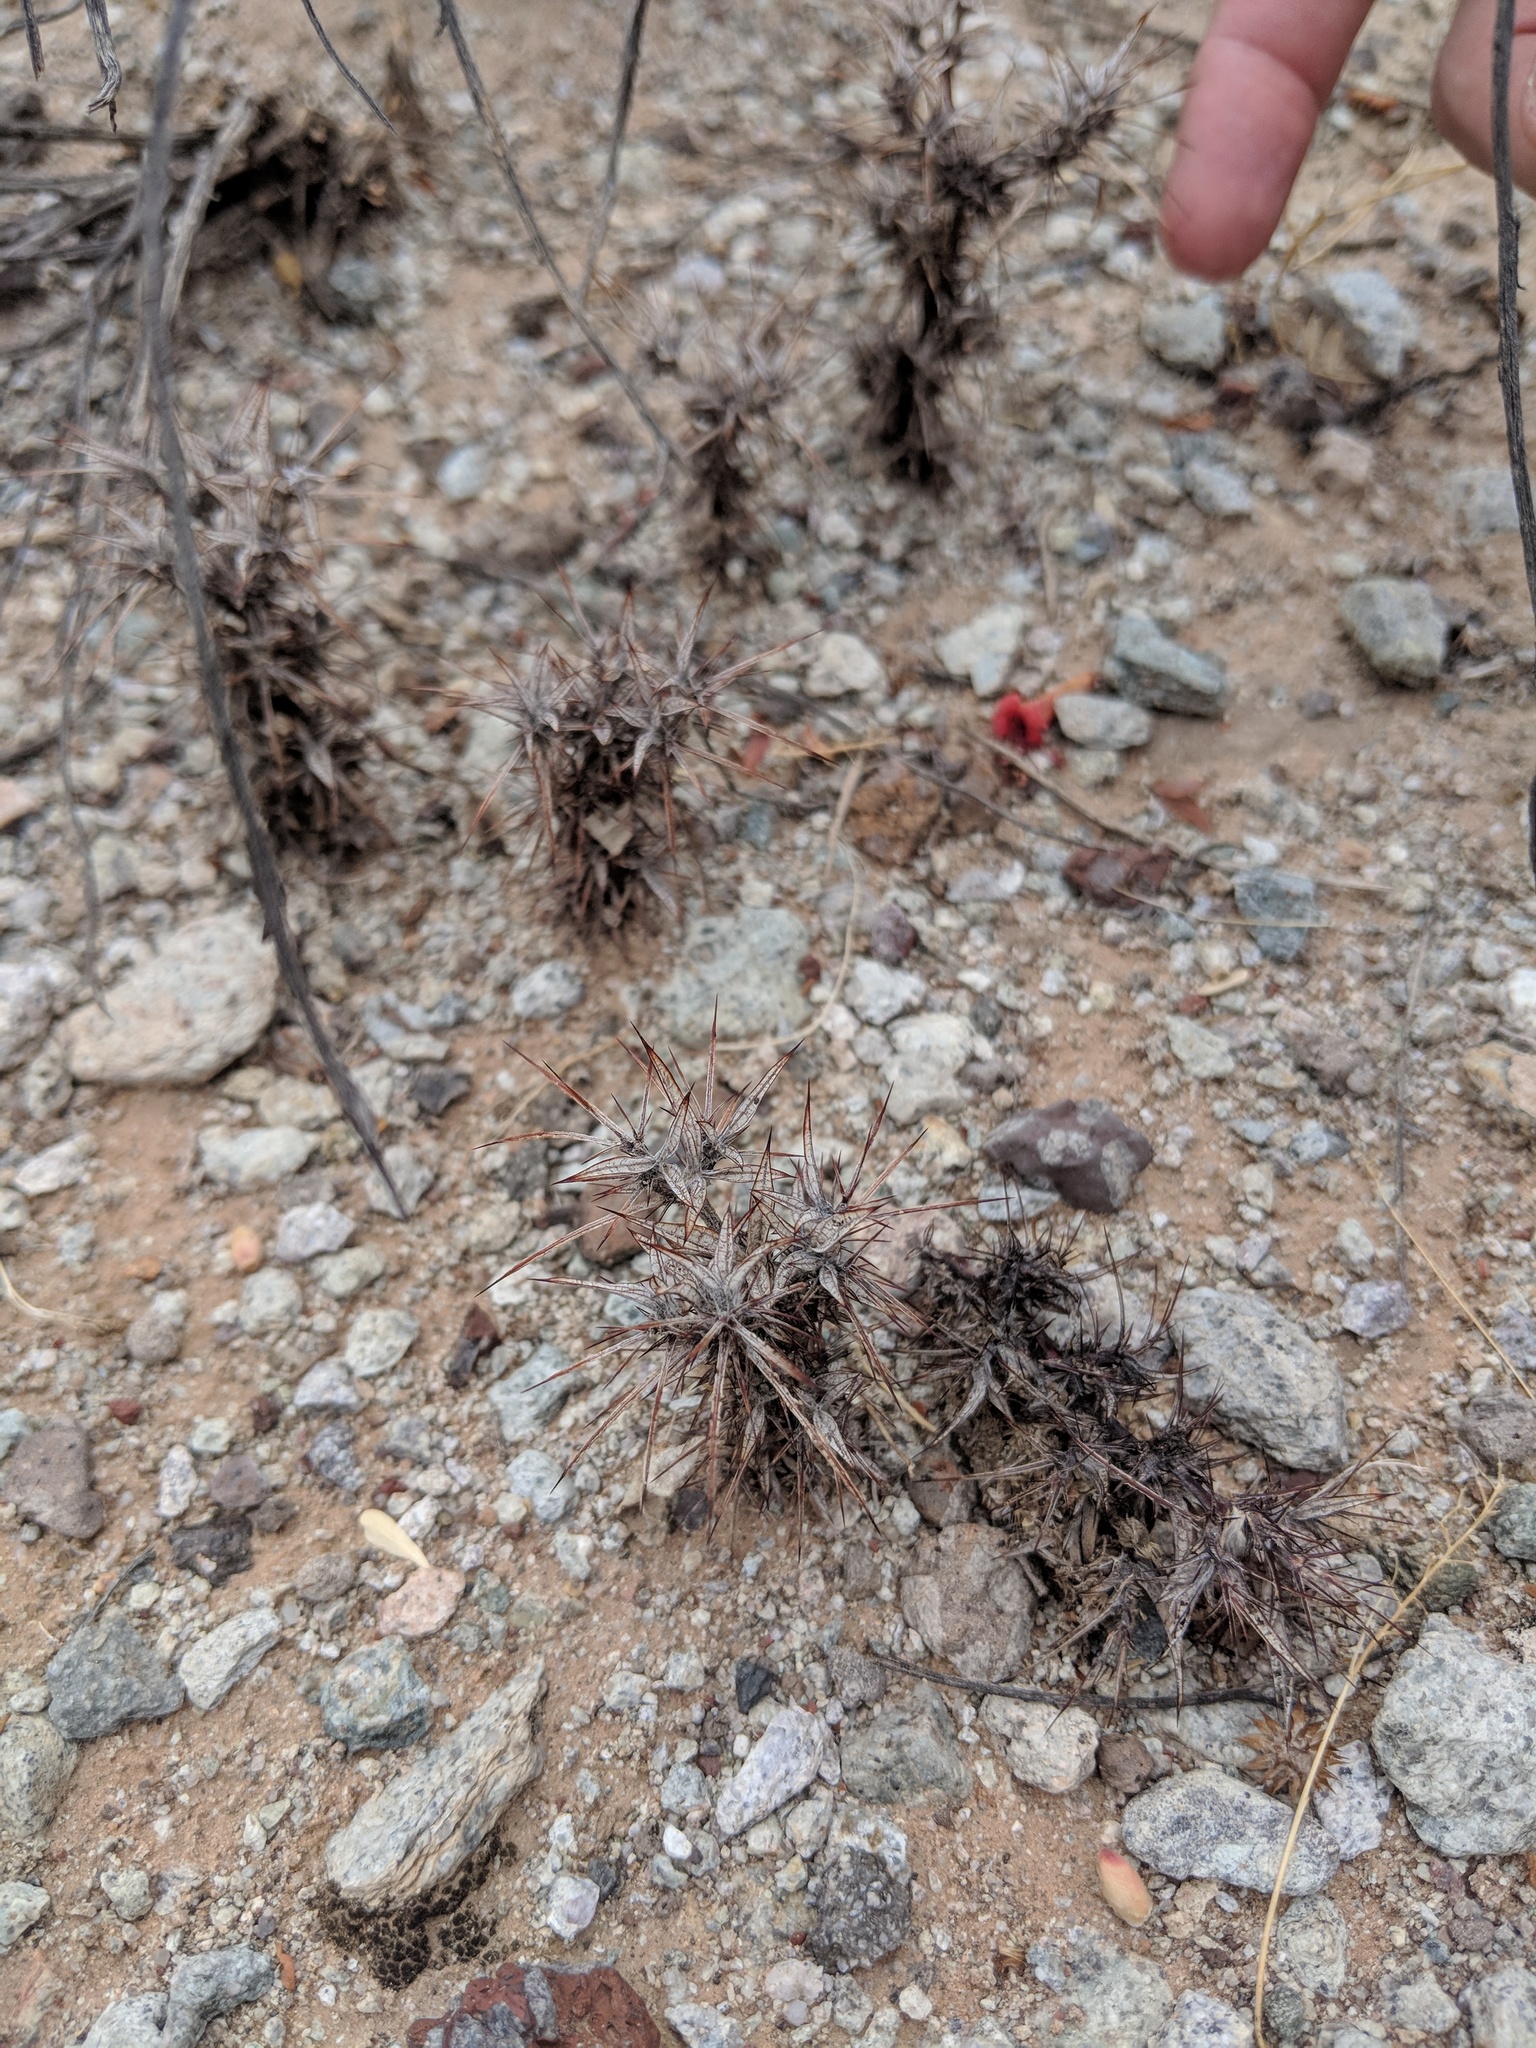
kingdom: Plantae
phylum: Tracheophyta
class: Magnoliopsida
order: Caryophyllales
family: Polygonaceae
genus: Chorizanthe
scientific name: Chorizanthe rigida
